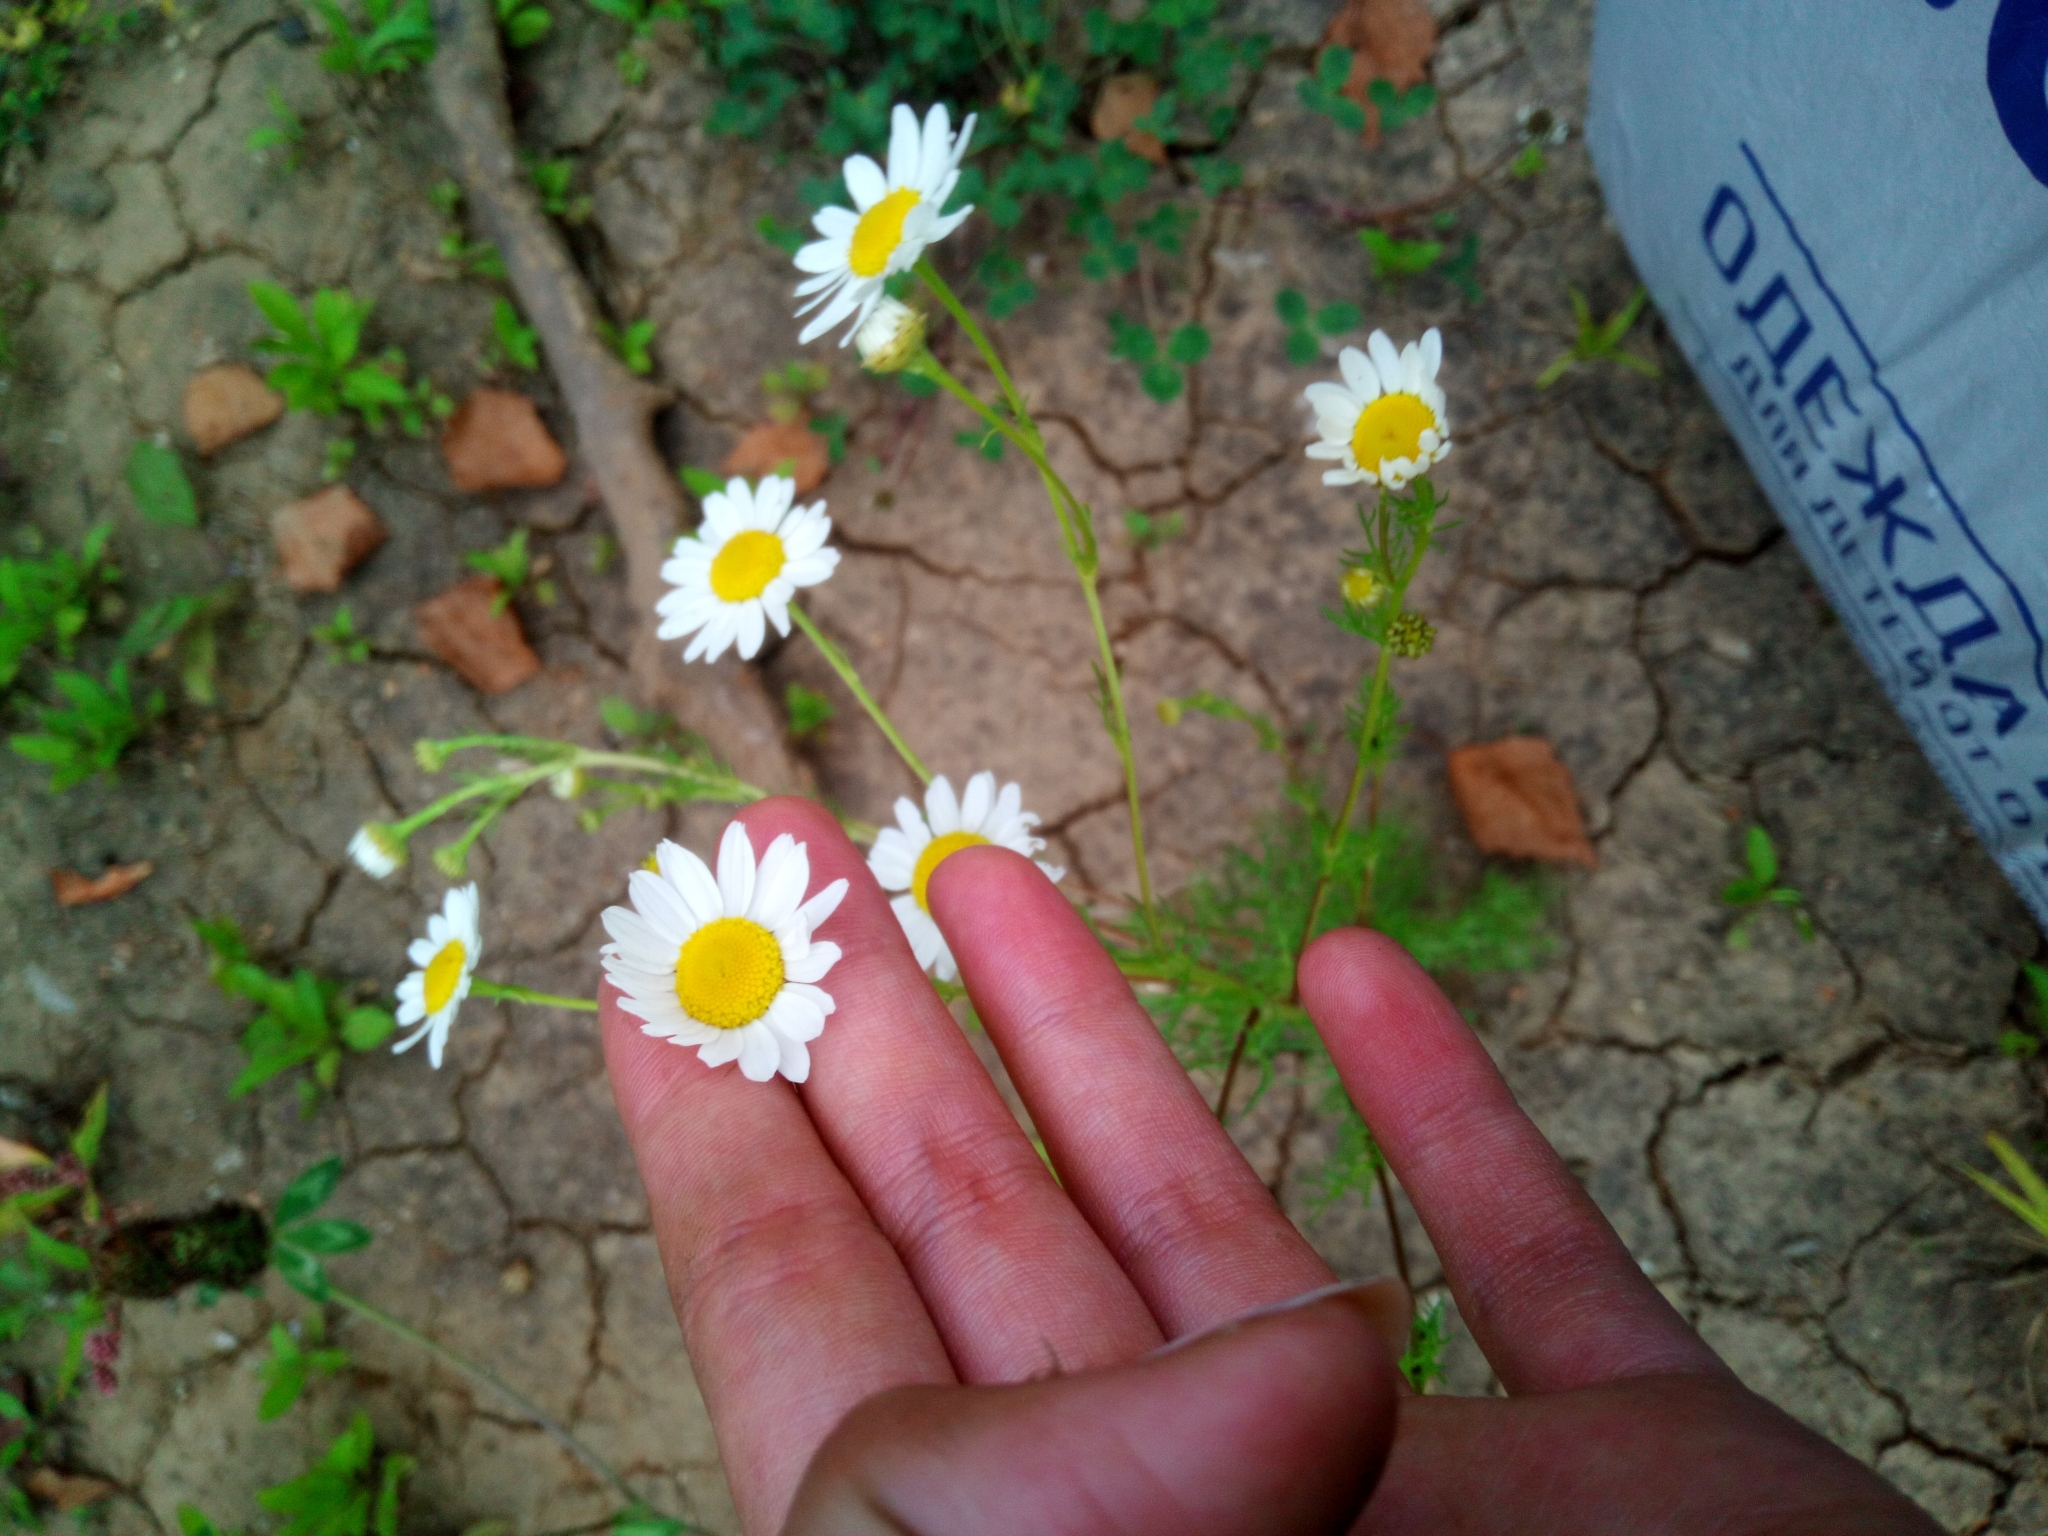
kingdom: Plantae
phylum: Tracheophyta
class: Magnoliopsida
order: Asterales
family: Asteraceae
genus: Tripleurospermum
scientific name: Tripleurospermum inodorum
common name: Scentless mayweed
